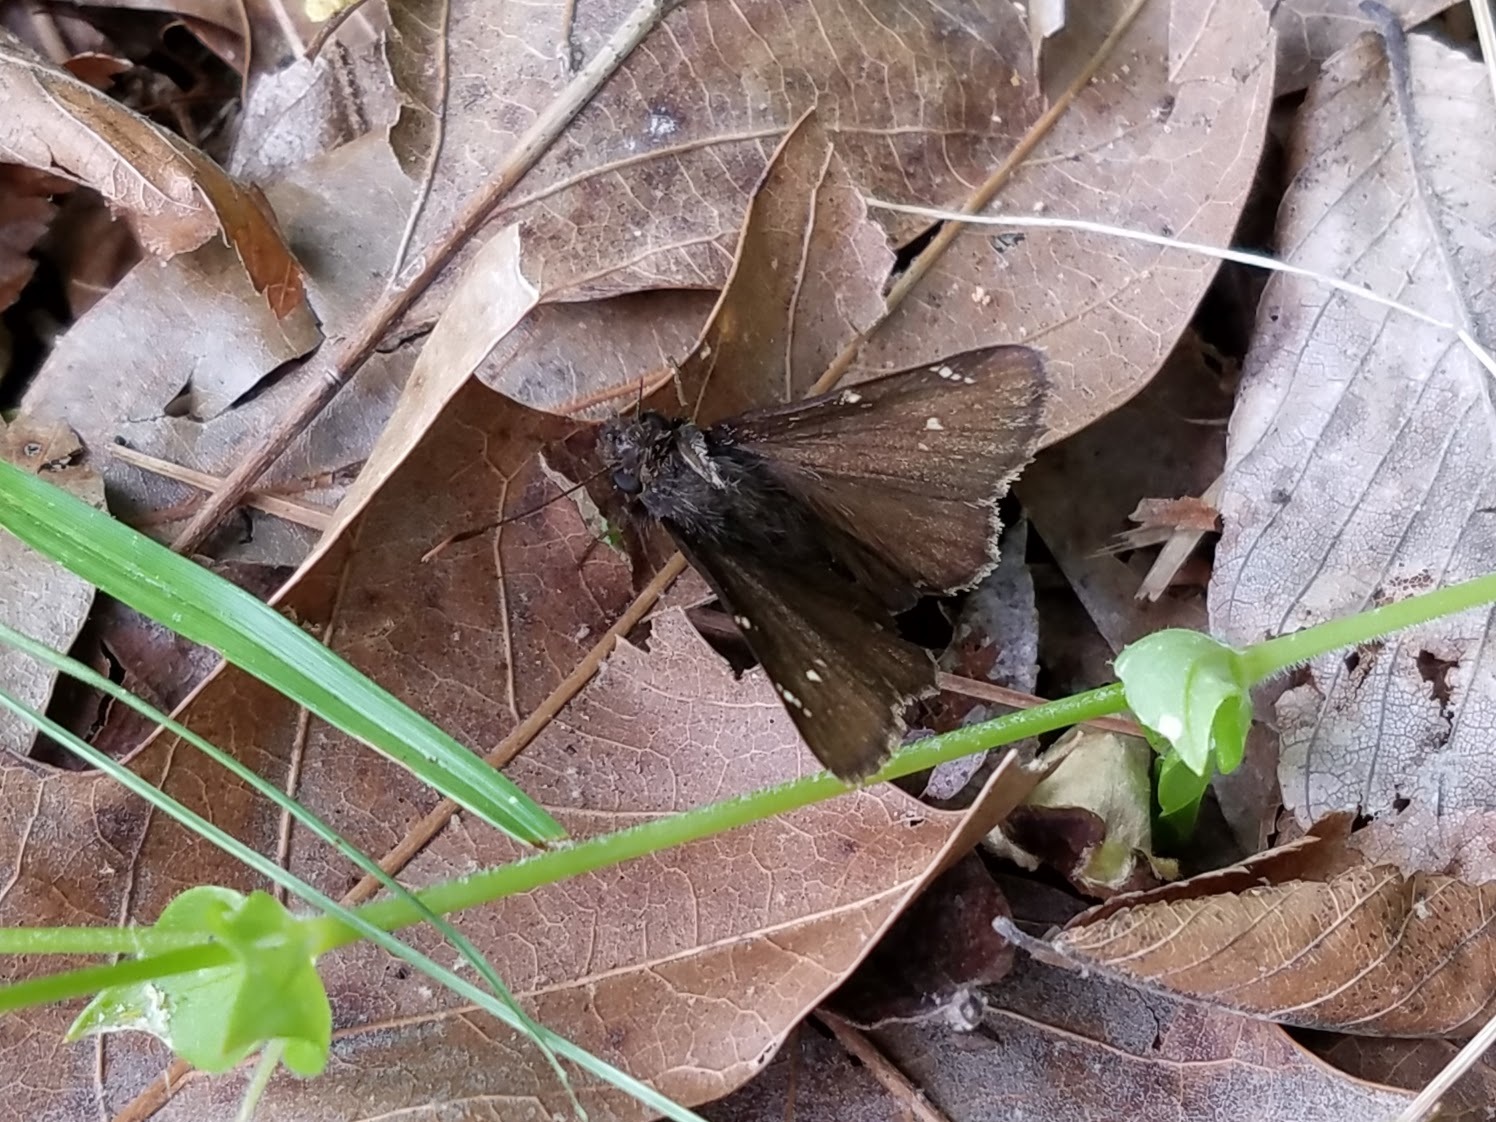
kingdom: Animalia
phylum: Arthropoda
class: Insecta
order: Lepidoptera
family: Hesperiidae
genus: Thorybes
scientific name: Thorybes pylades
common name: Northern cloudywing
